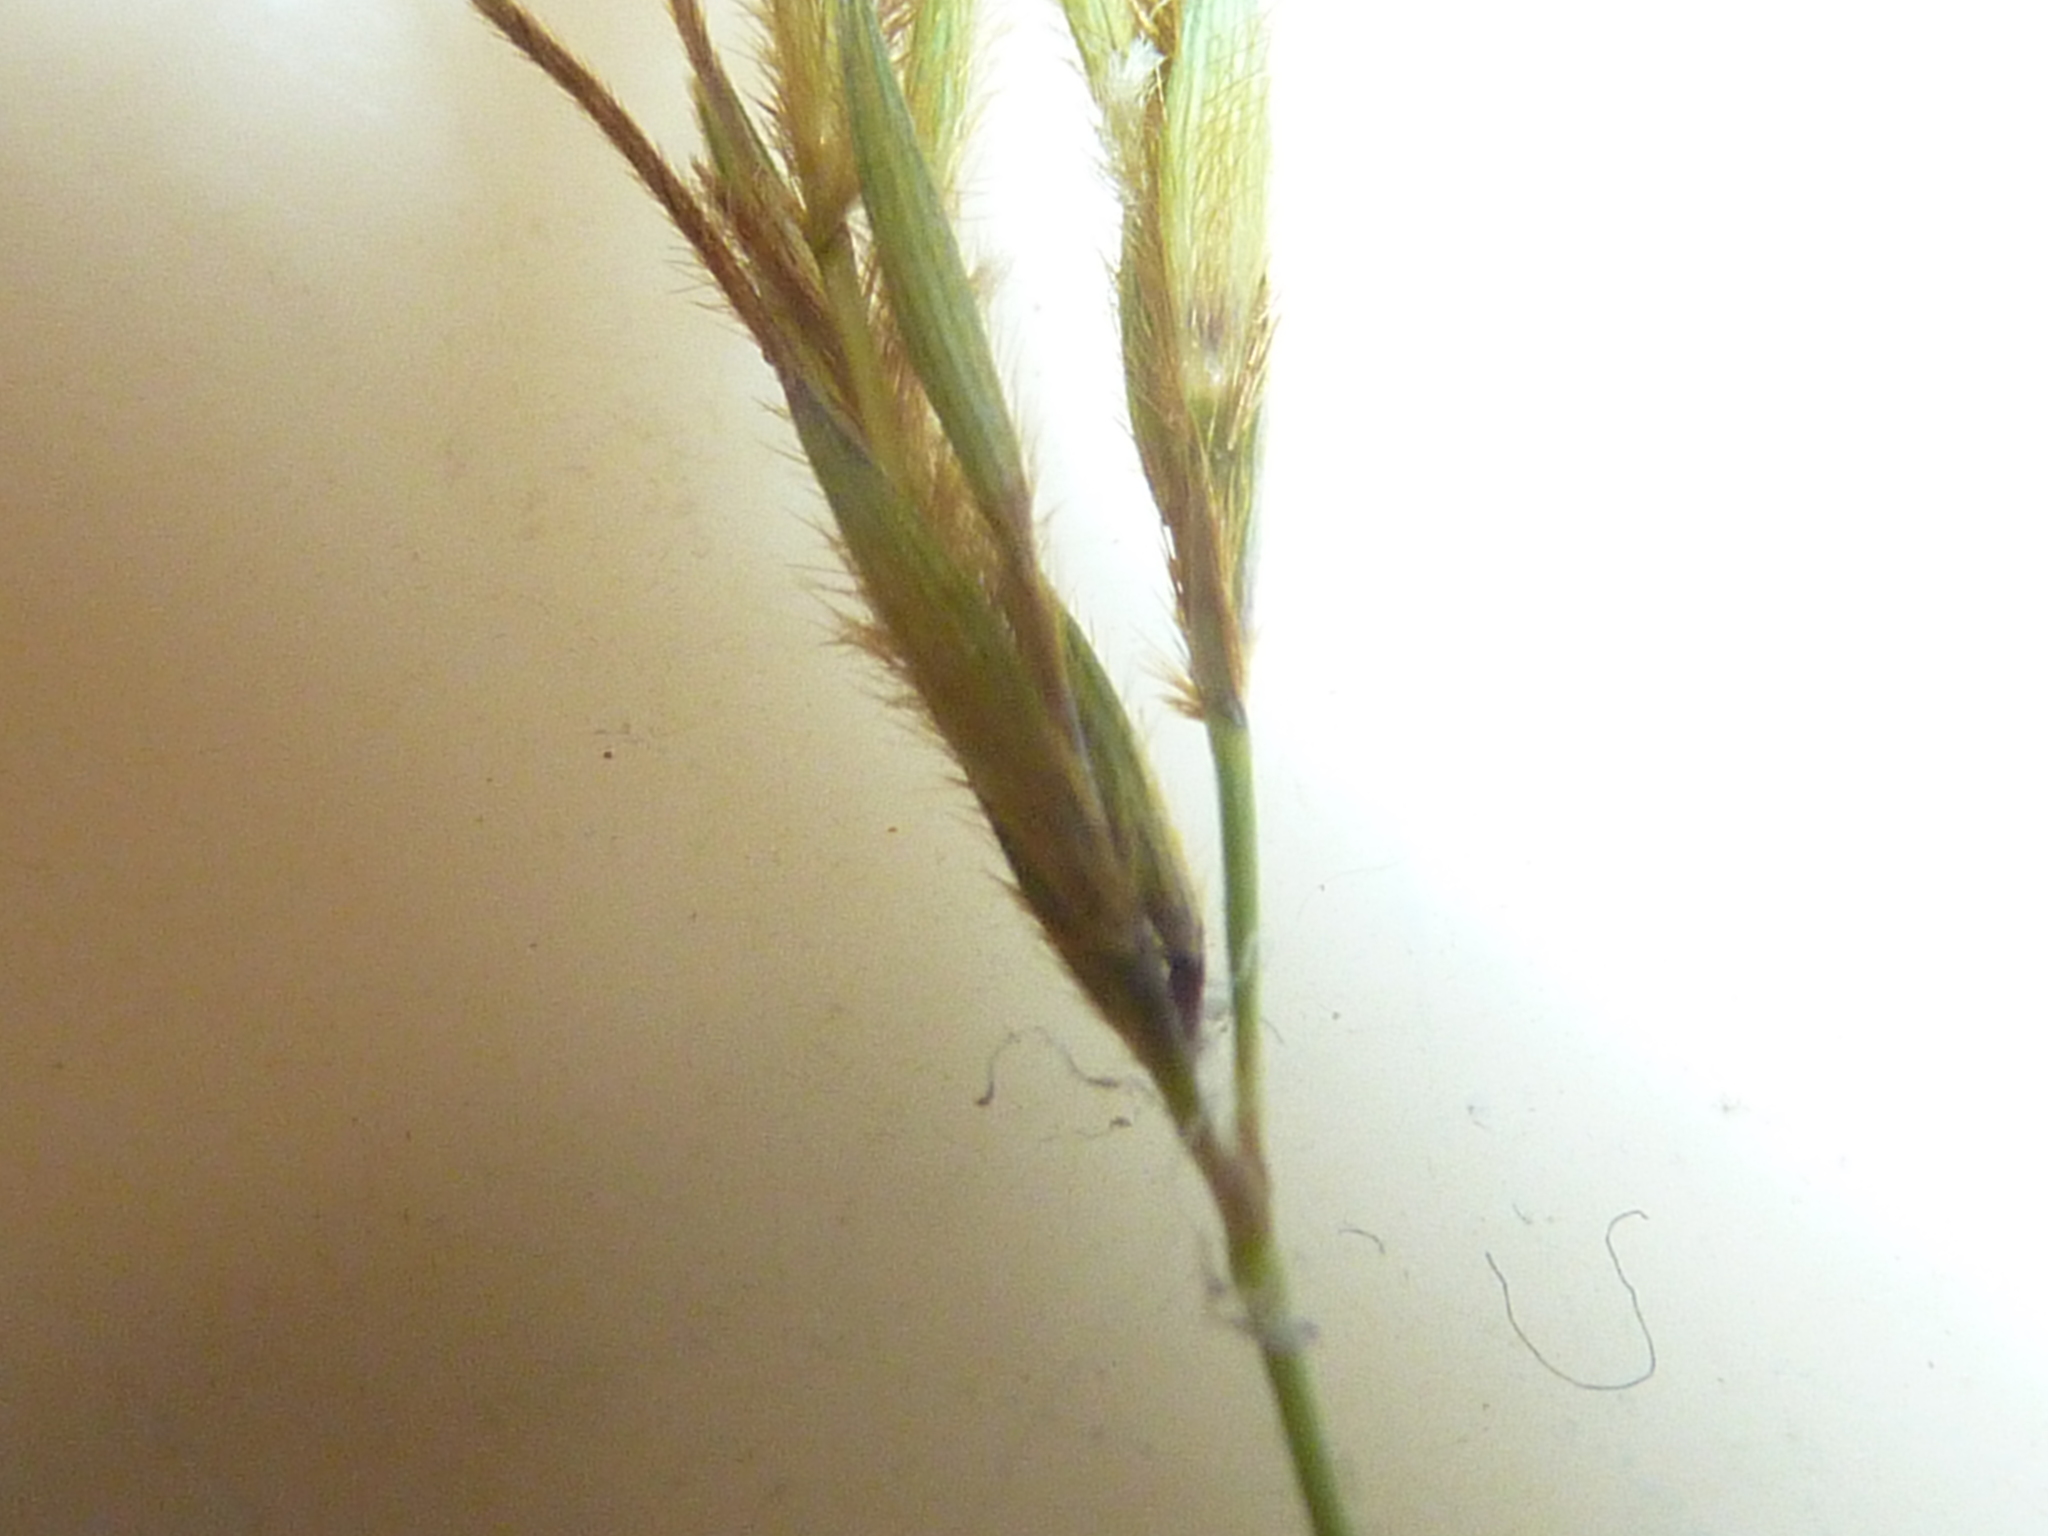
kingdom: Plantae
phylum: Tracheophyta
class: Liliopsida
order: Poales
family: Poaceae
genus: Hyparrhenia
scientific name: Hyparrhenia rufa
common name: Jaraguagrass
